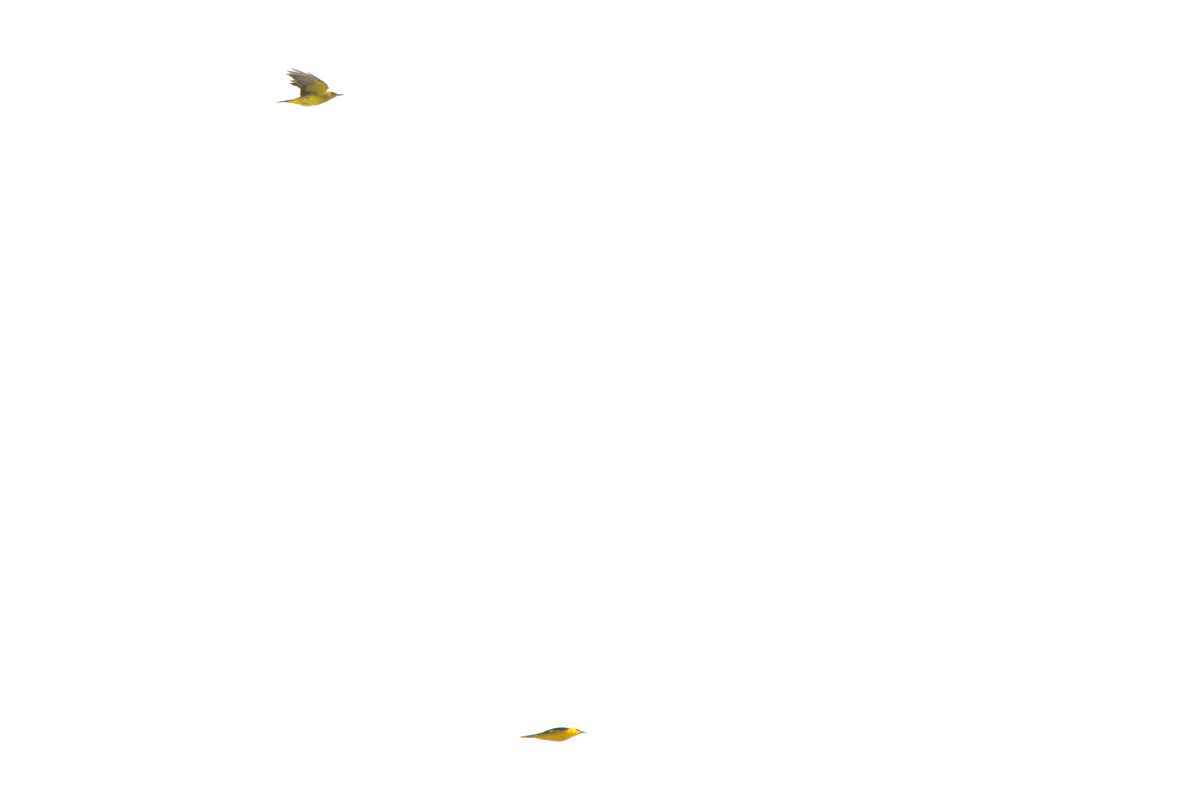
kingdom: Animalia
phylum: Chordata
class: Aves
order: Passeriformes
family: Oriolidae
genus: Oriolus
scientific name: Oriolus oriolus
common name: Eurasian golden oriole
